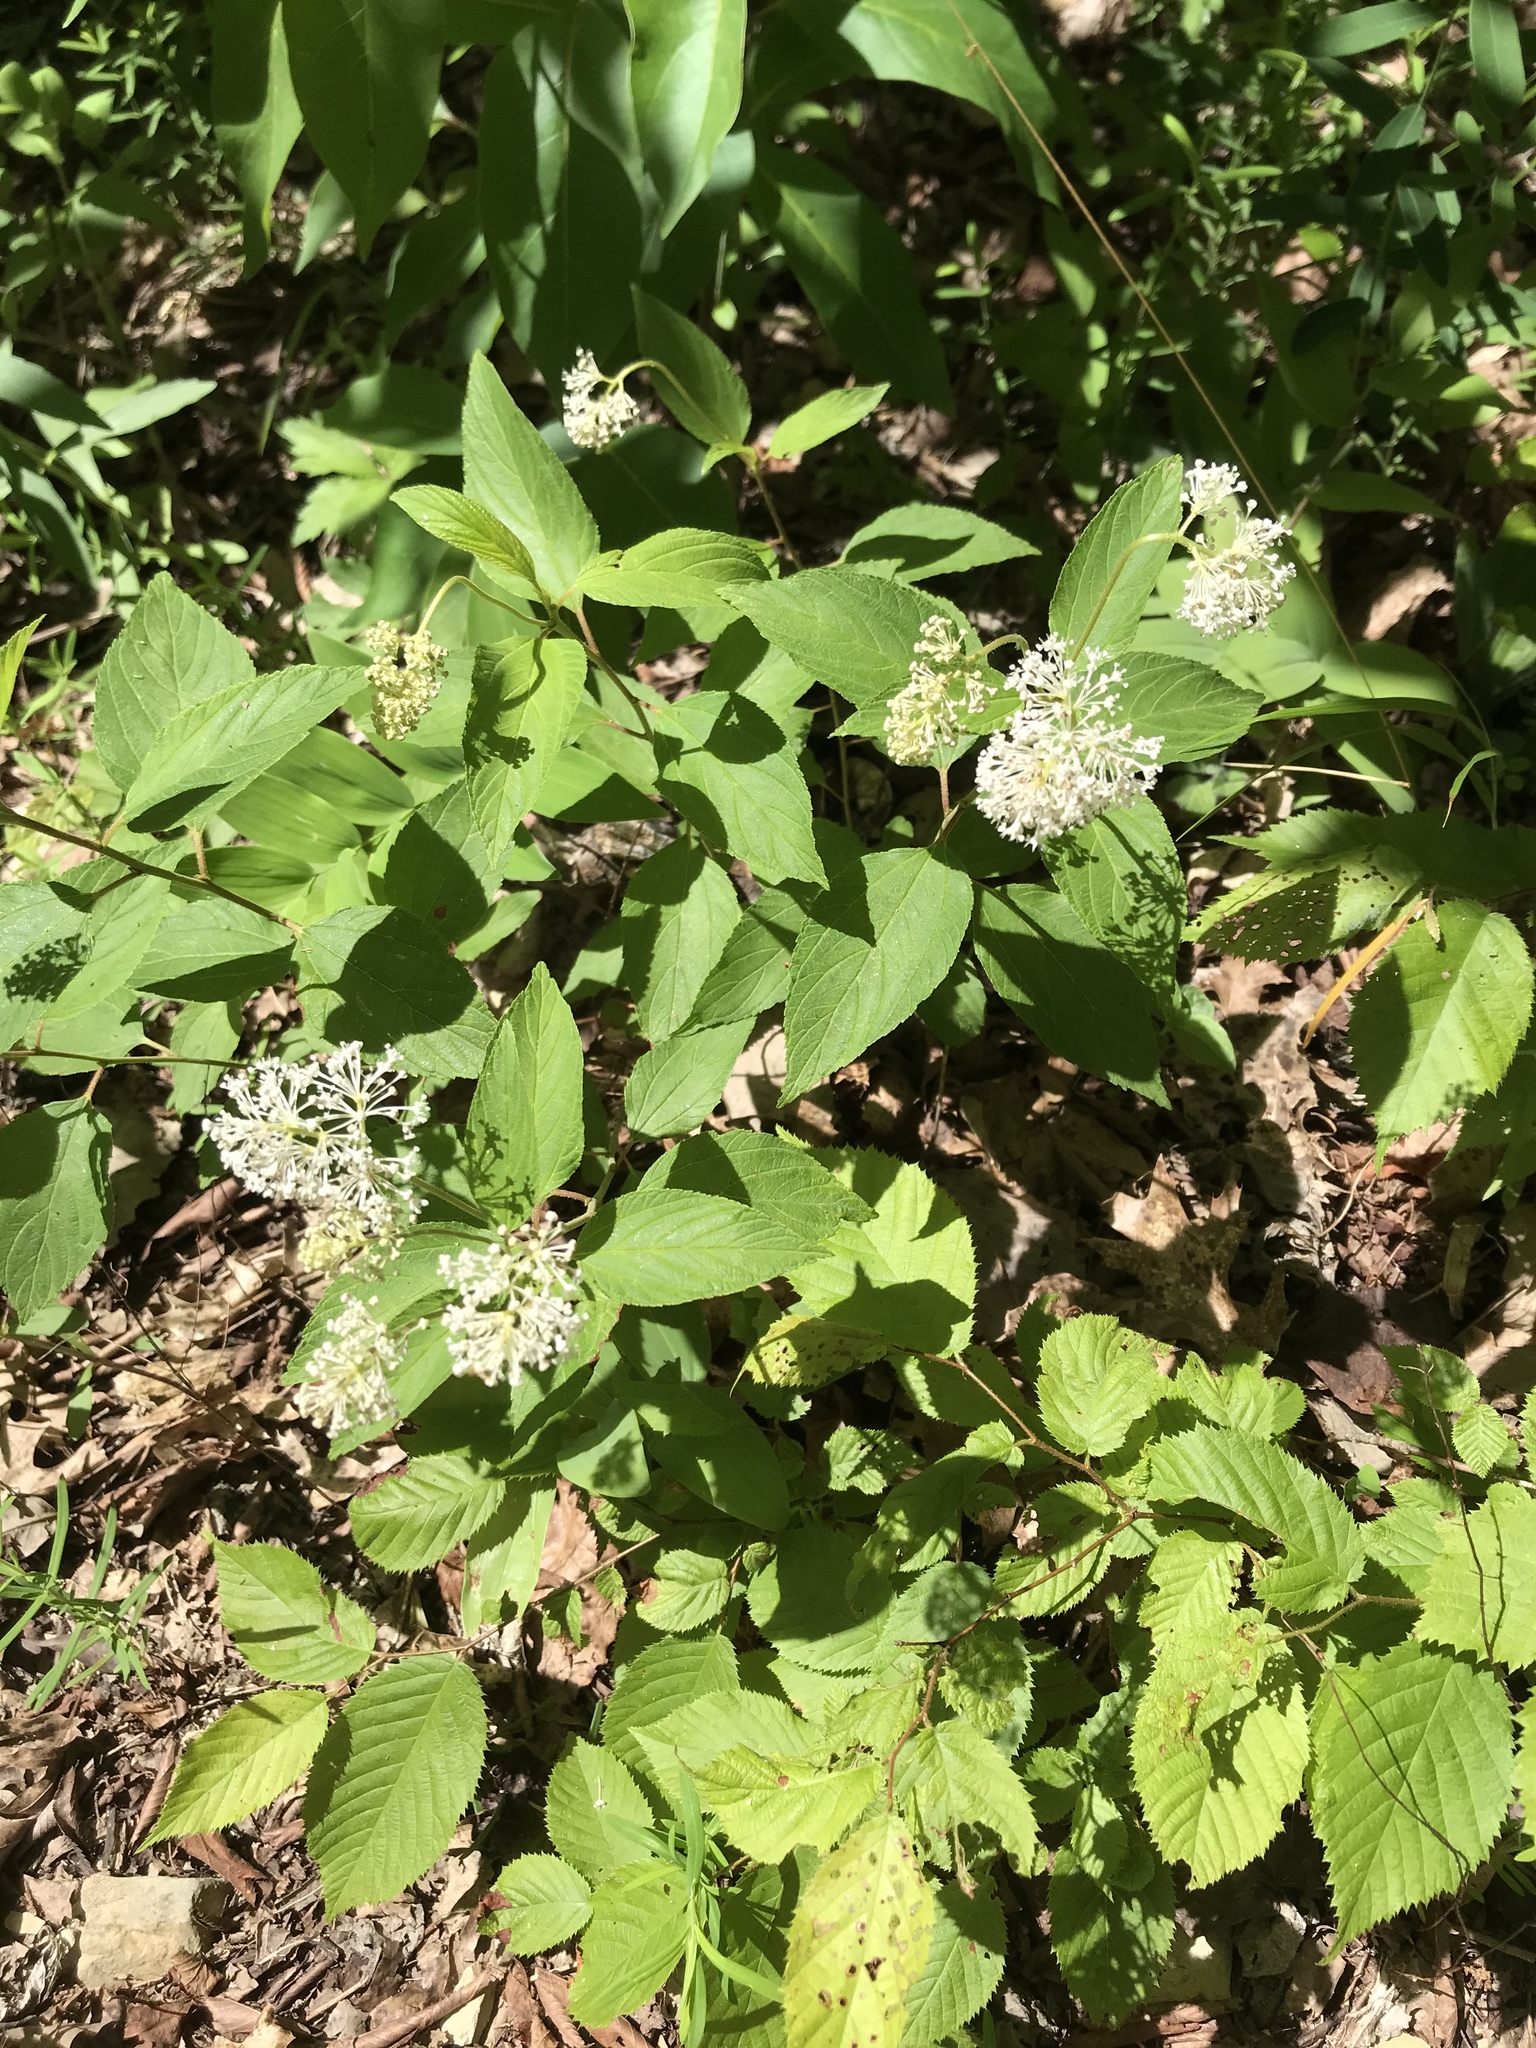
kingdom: Plantae
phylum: Tracheophyta
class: Magnoliopsida
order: Rosales
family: Rhamnaceae
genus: Ceanothus
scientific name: Ceanothus americanus
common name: Redroot
